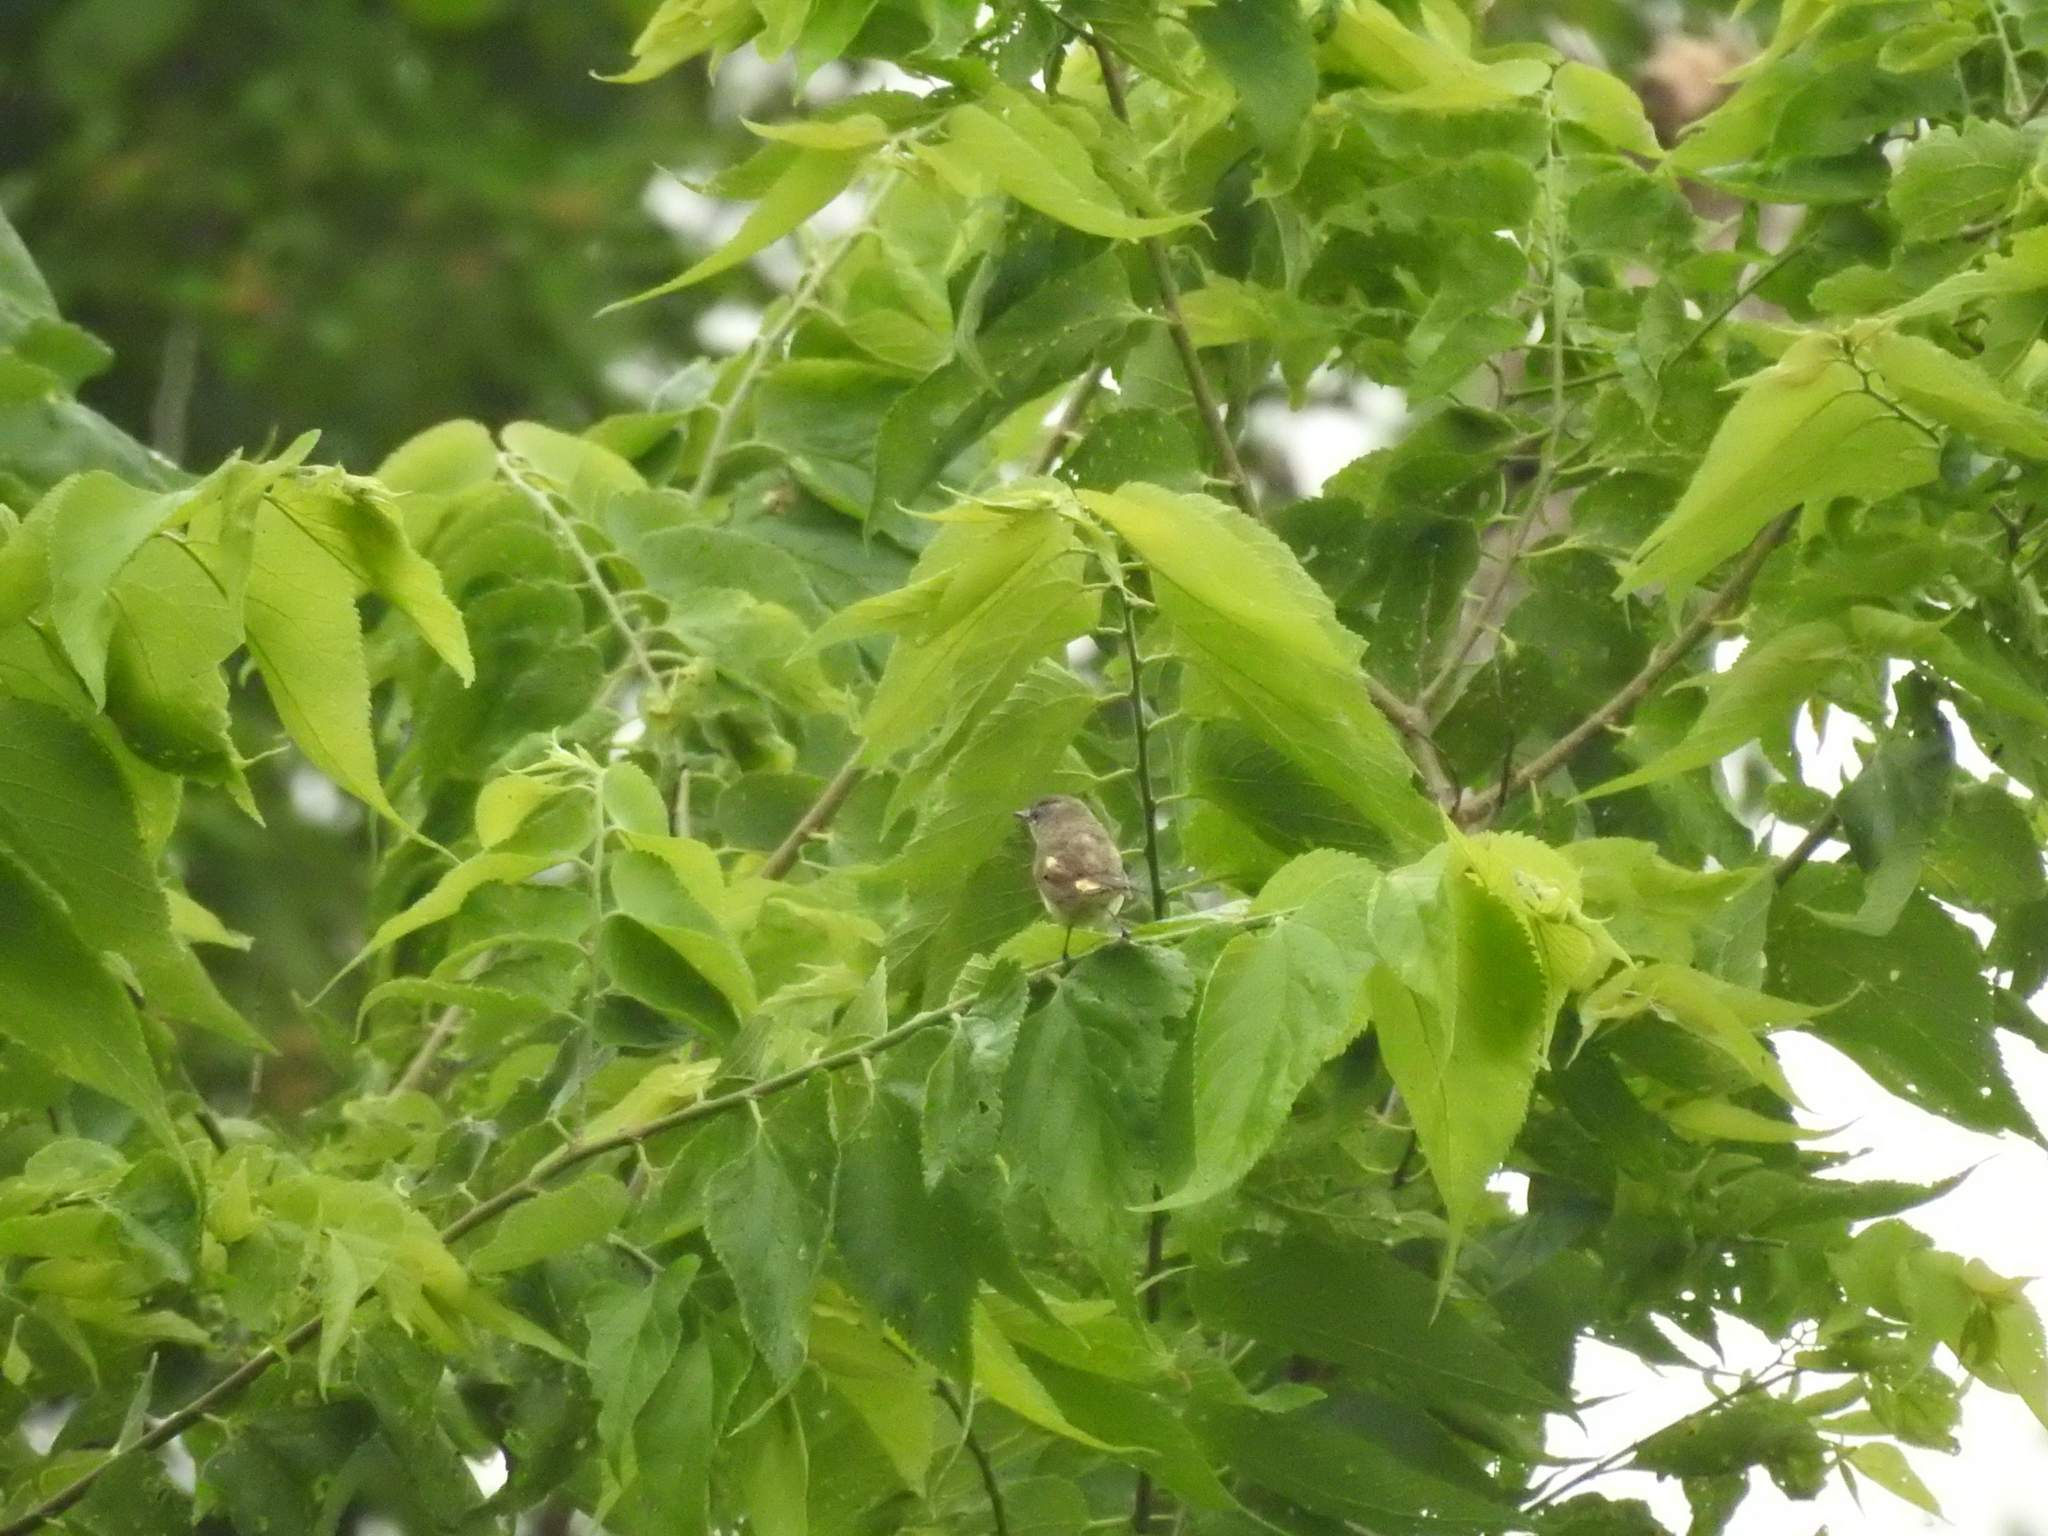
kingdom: Animalia
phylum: Chordata
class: Aves
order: Passeriformes
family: Parulidae
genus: Setophaga
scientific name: Setophaga ruticilla
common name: American redstart
